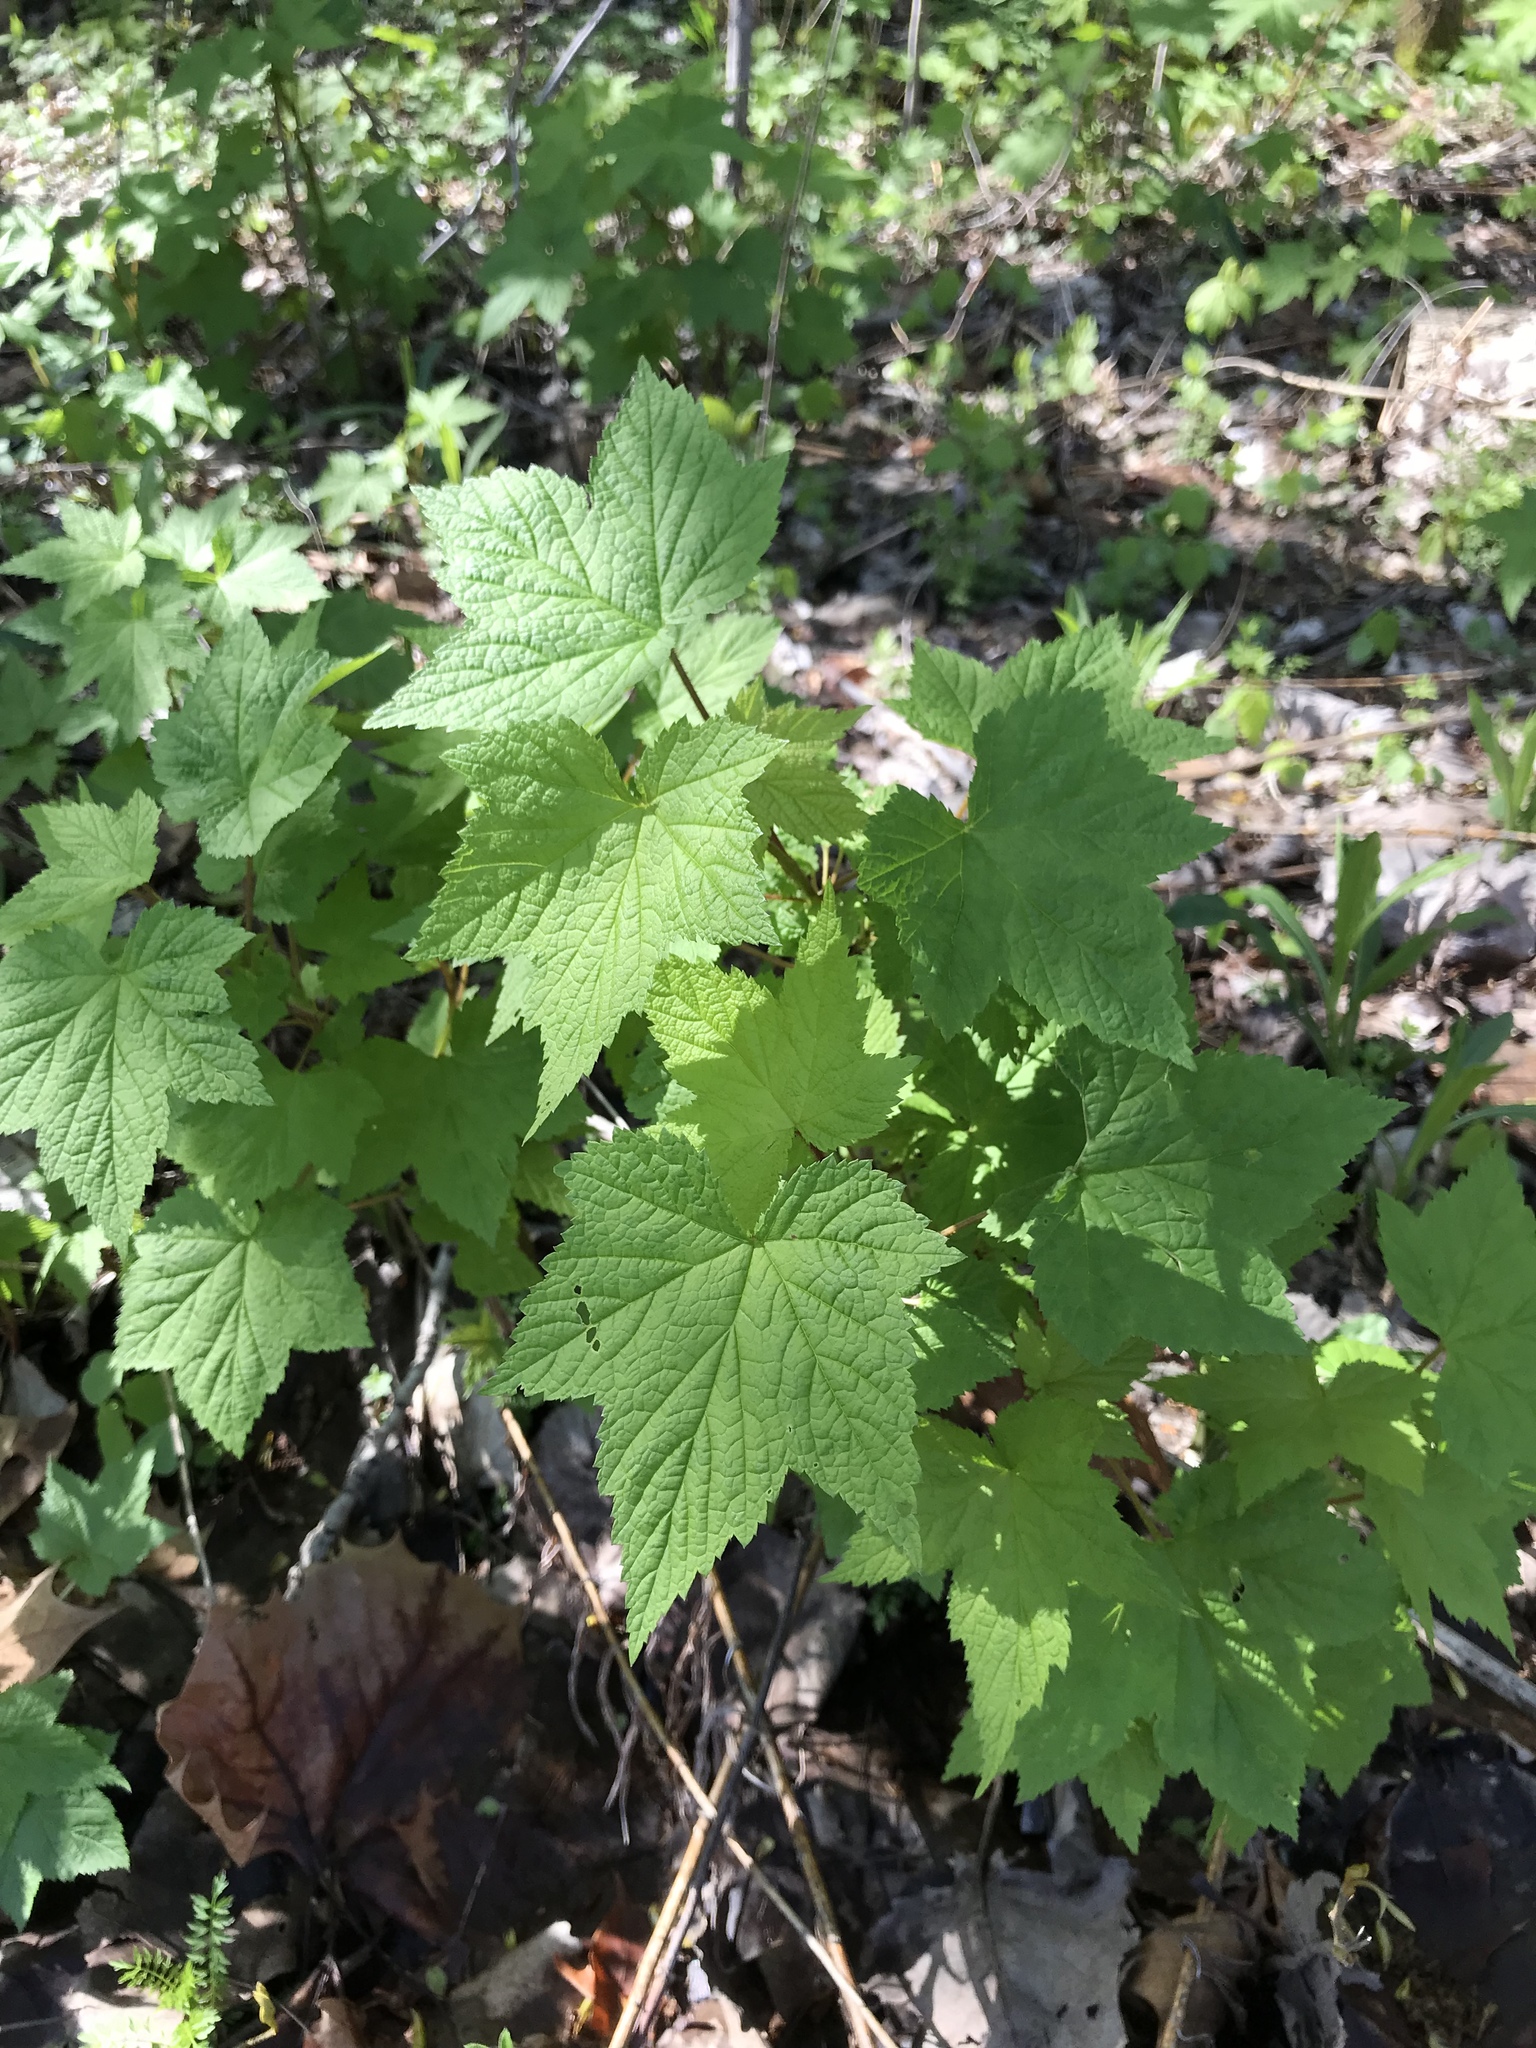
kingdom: Plantae
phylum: Tracheophyta
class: Magnoliopsida
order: Rosales
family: Rosaceae
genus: Rubus
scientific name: Rubus odoratus
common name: Purple-flowered raspberry
